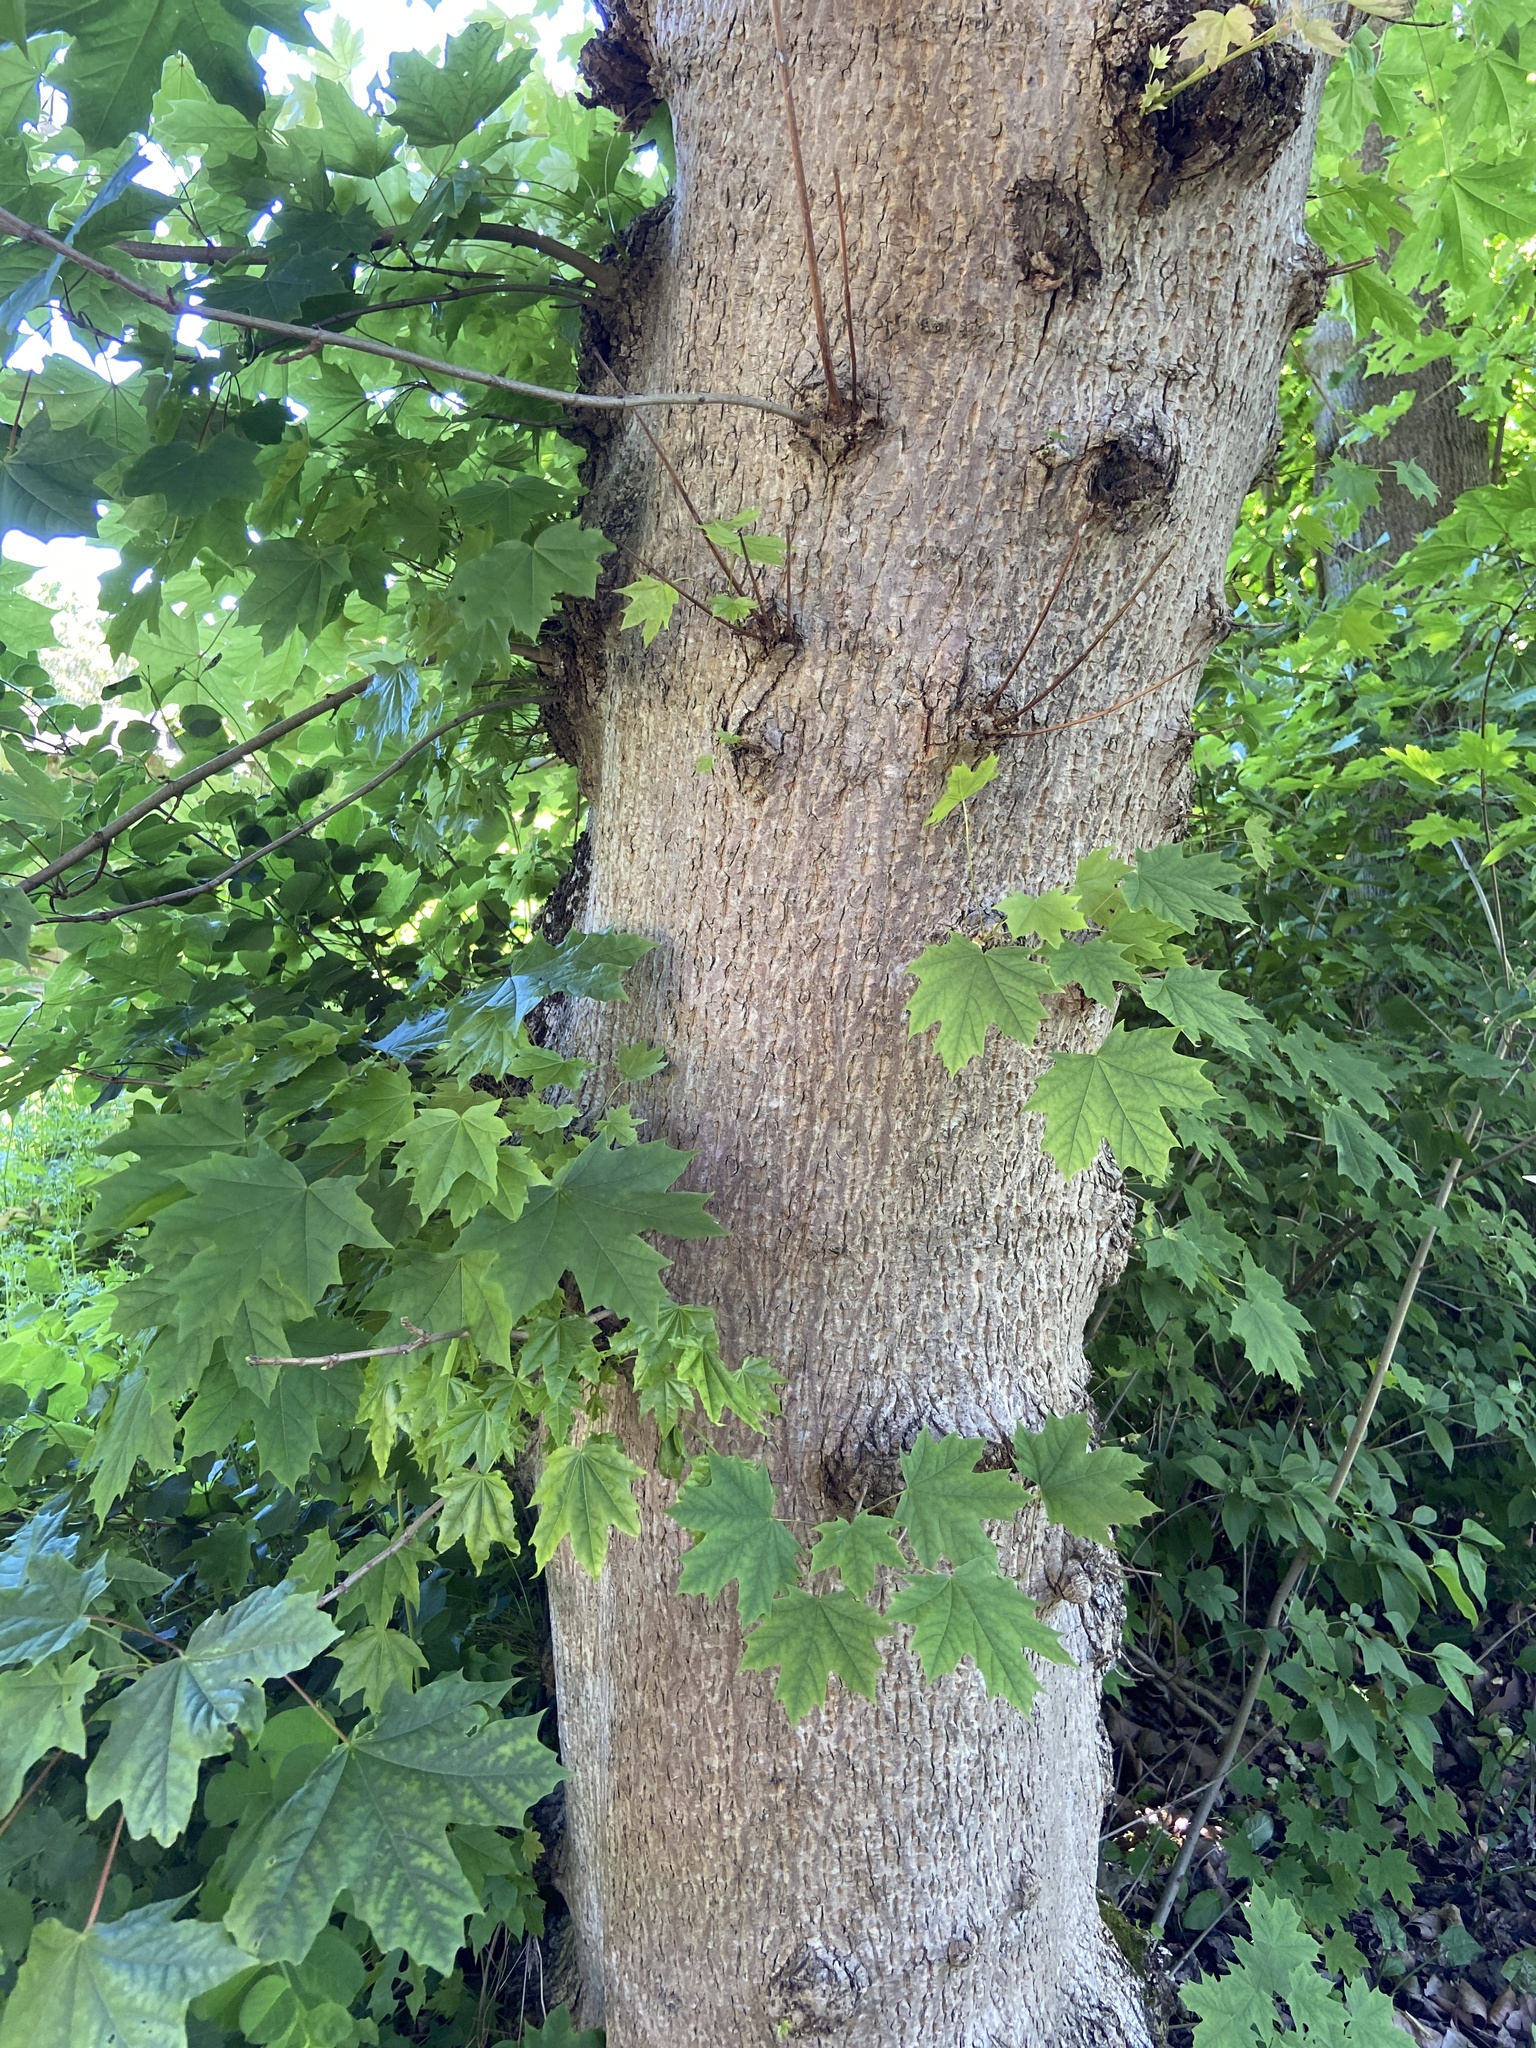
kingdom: Plantae
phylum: Tracheophyta
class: Magnoliopsida
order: Sapindales
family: Sapindaceae
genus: Acer
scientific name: Acer platanoides
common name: Norway maple
